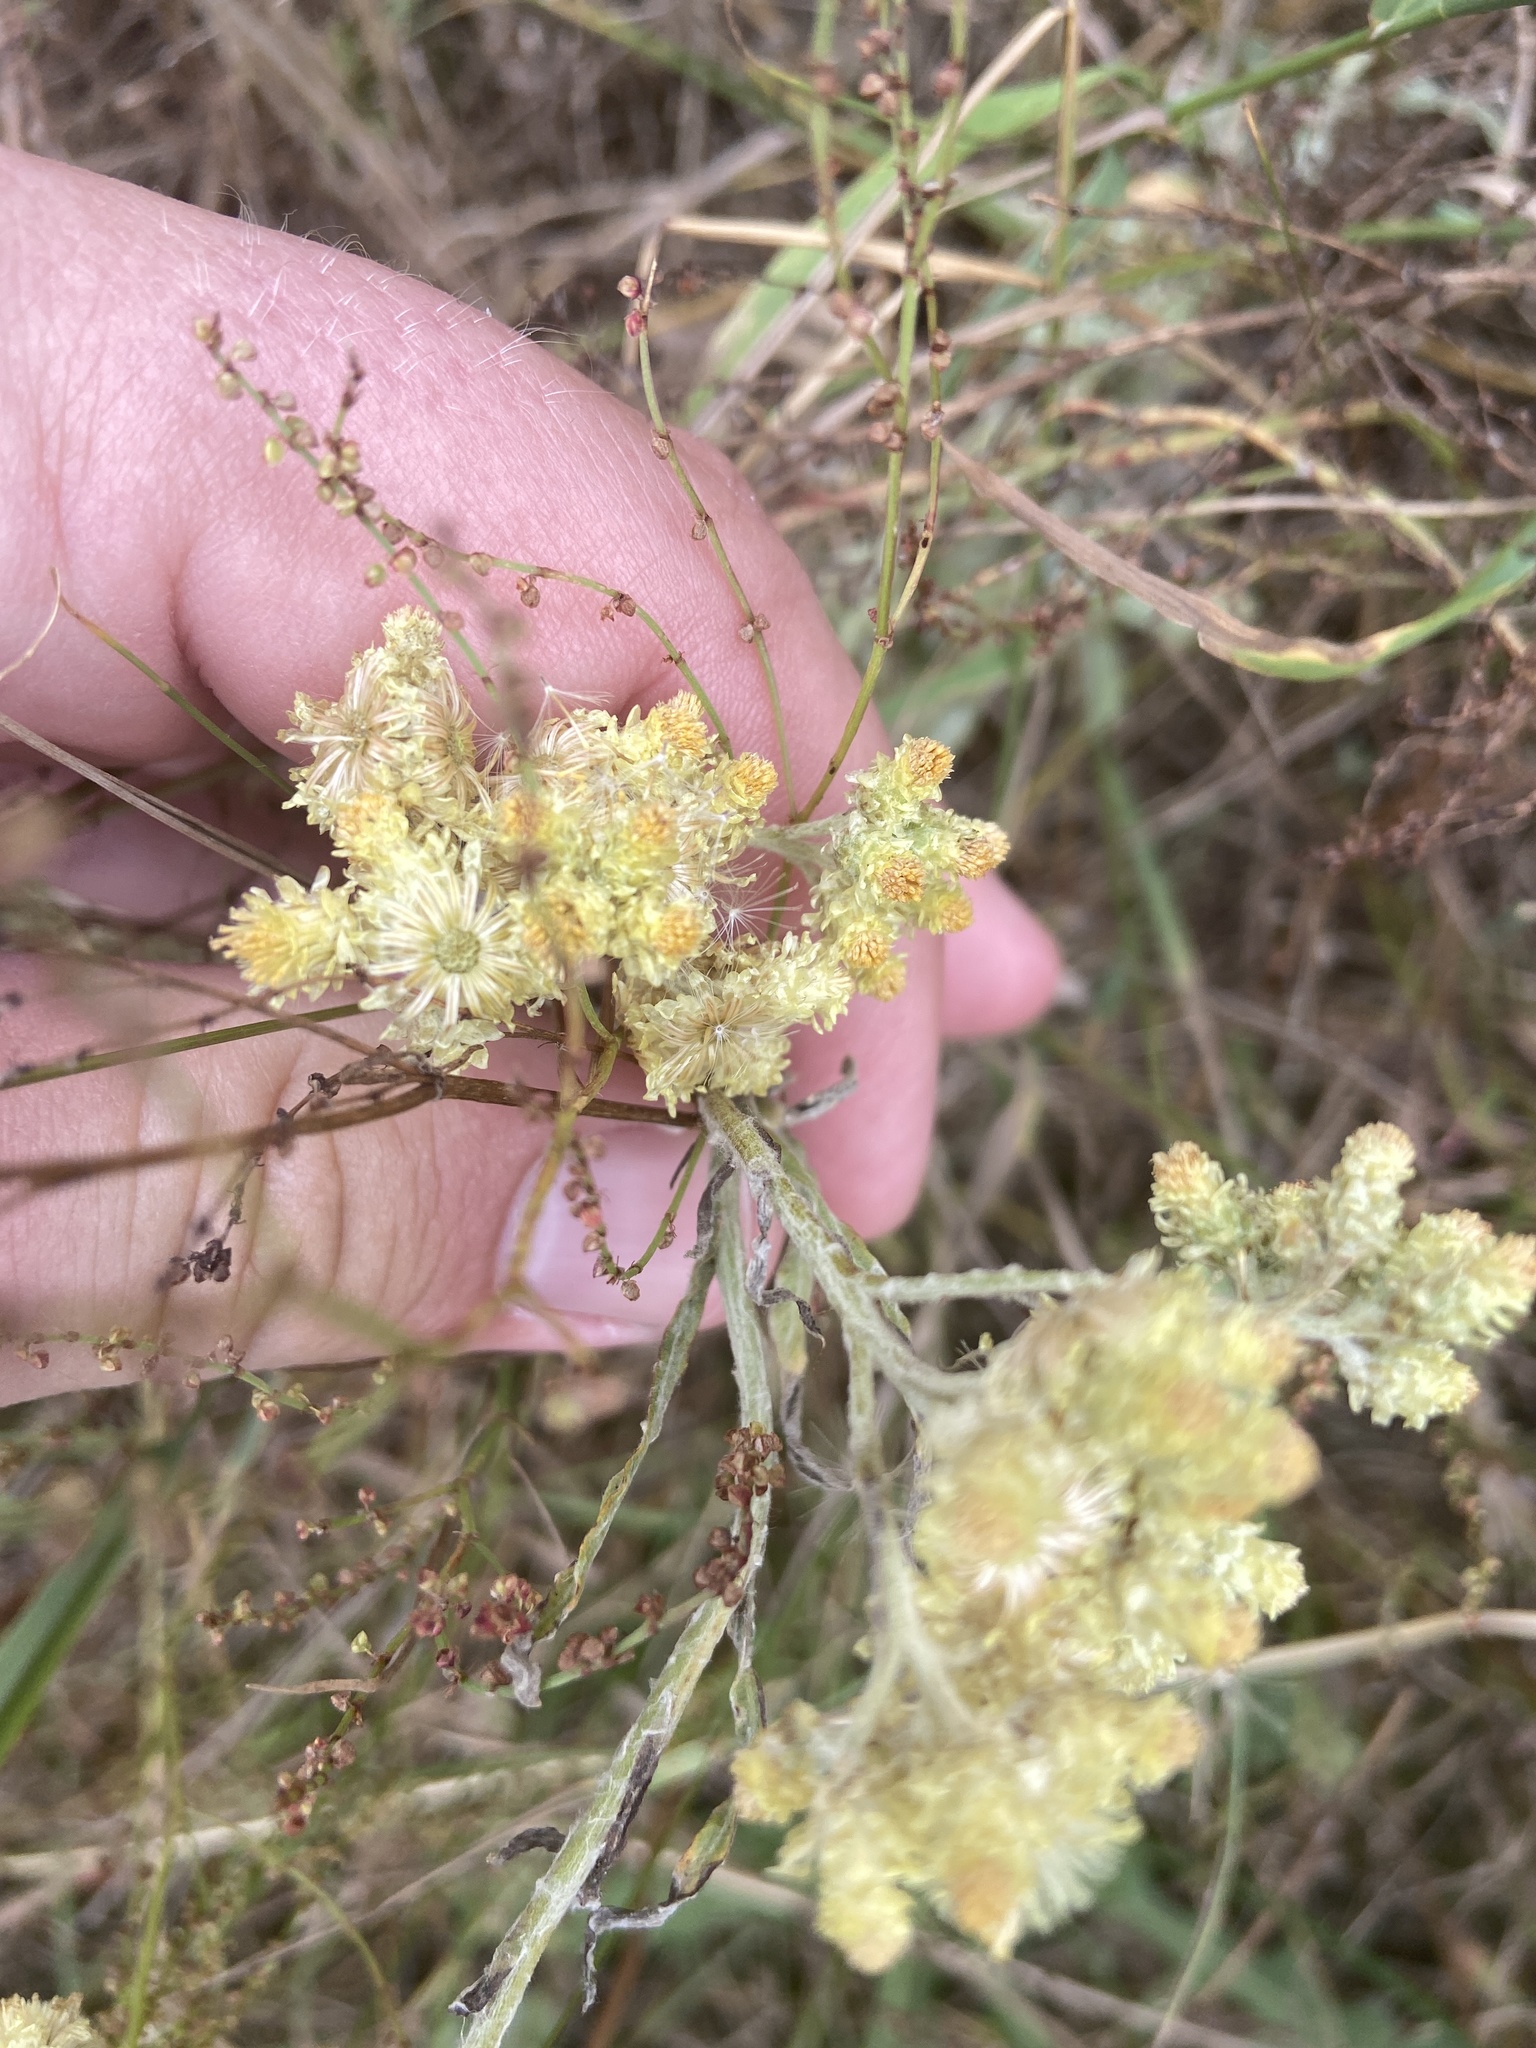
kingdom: Plantae
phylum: Tracheophyta
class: Magnoliopsida
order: Asterales
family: Asteraceae
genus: Helichrysum
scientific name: Helichrysum arenarium
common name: Strawflower
